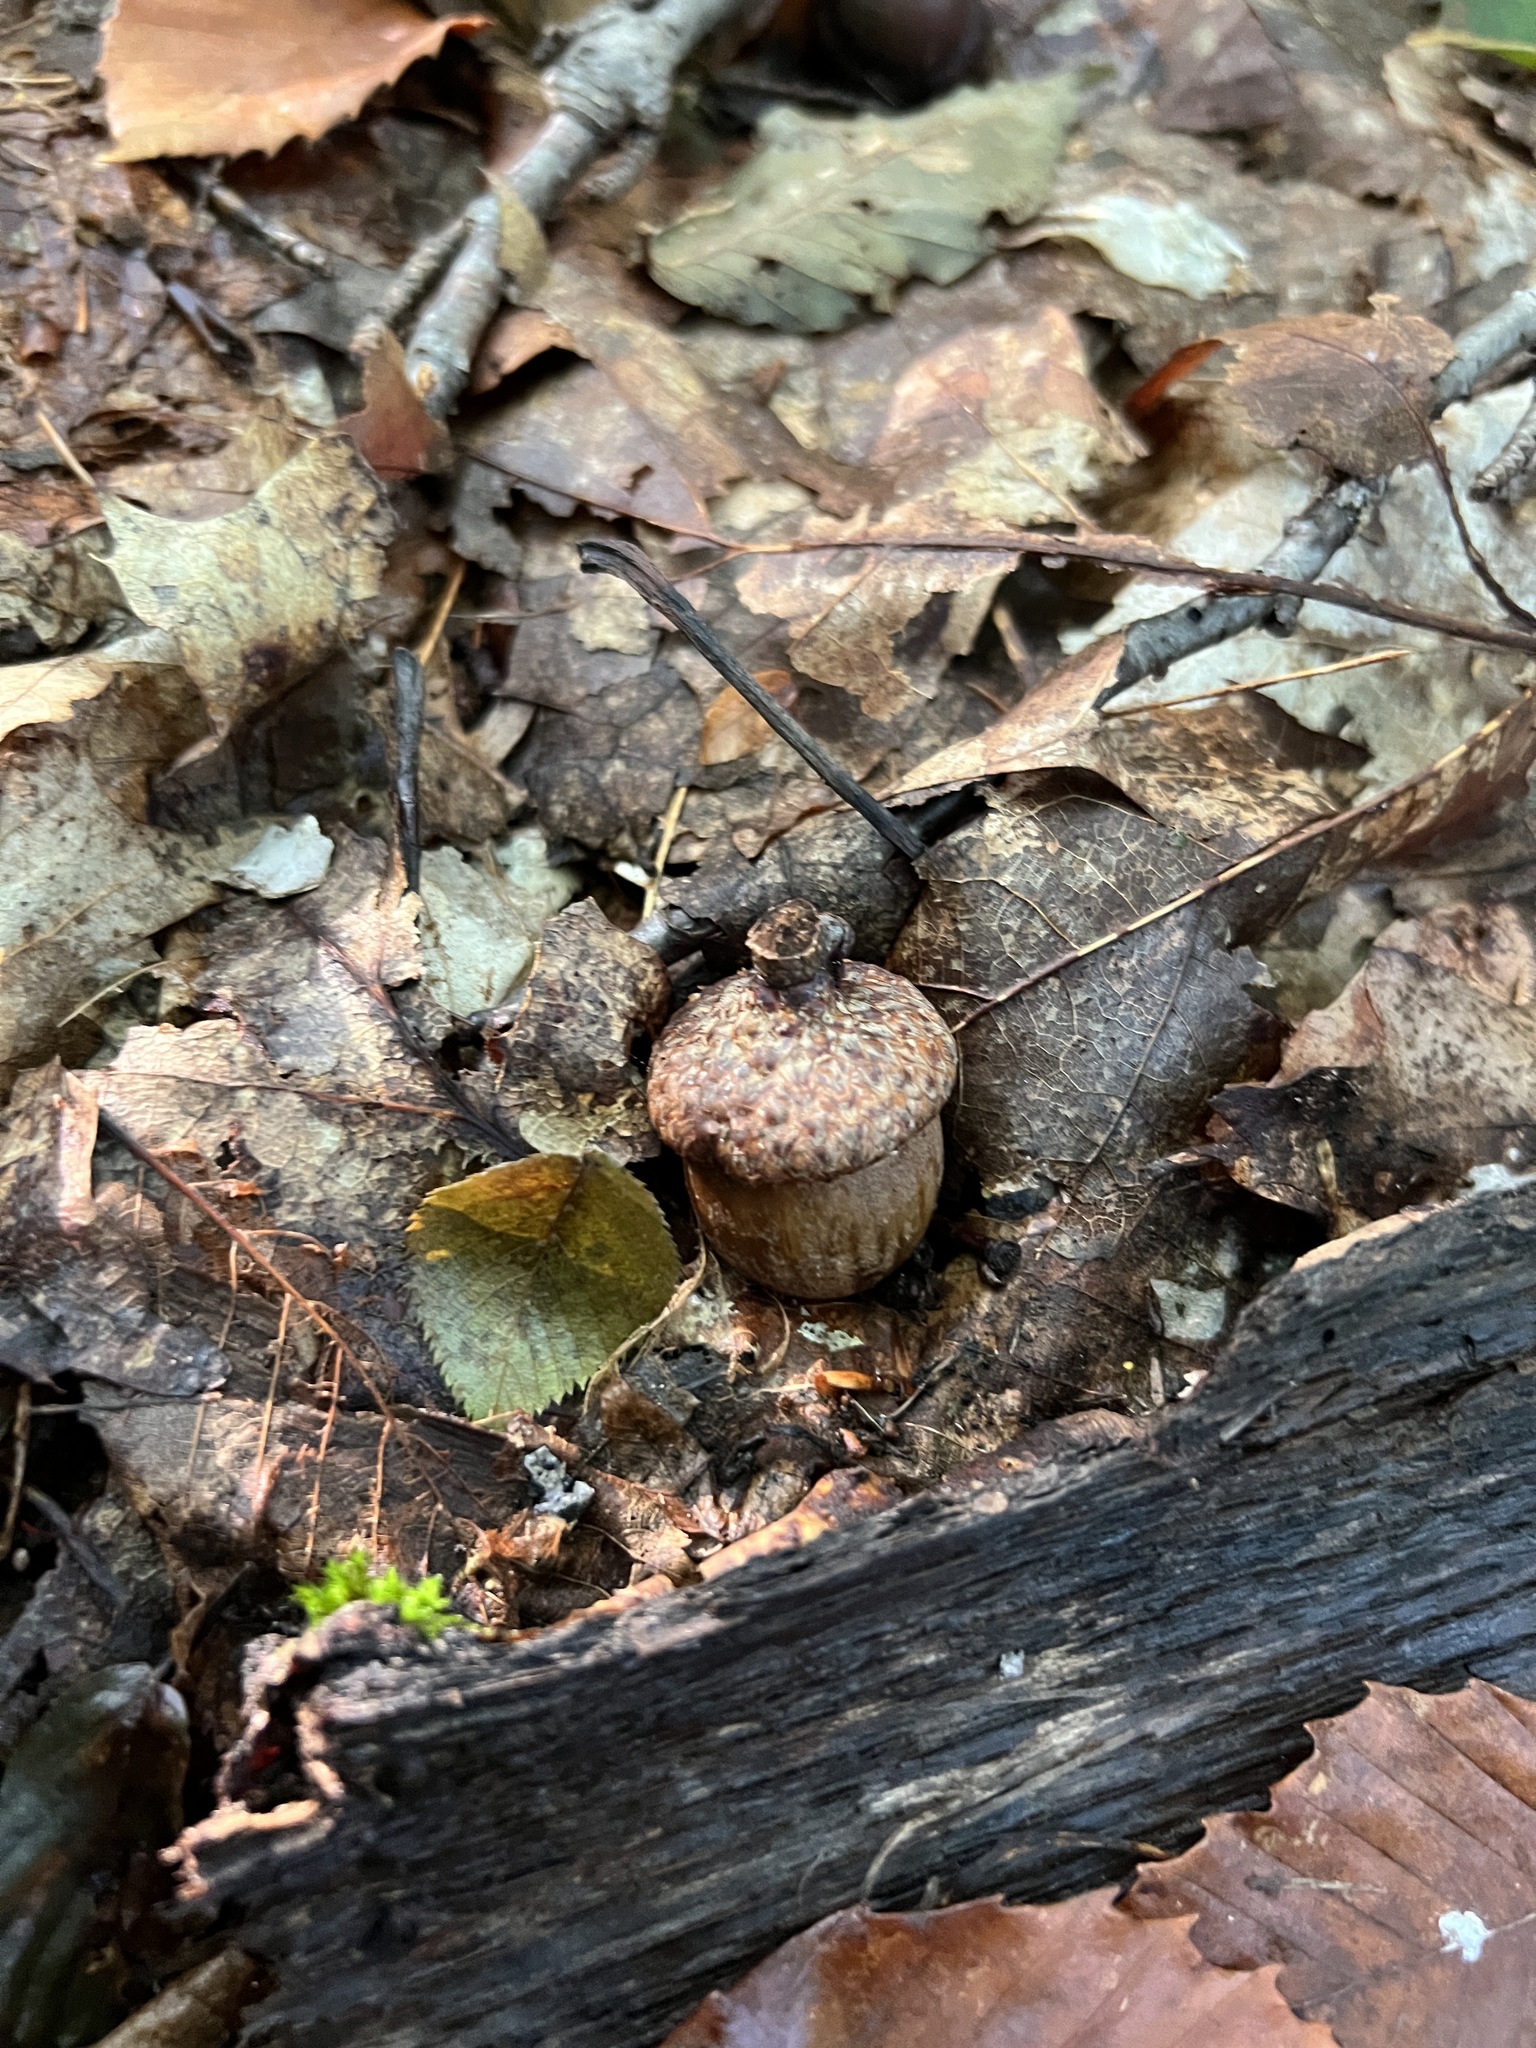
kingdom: Plantae
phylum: Tracheophyta
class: Magnoliopsida
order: Fagales
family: Fagaceae
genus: Quercus
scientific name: Quercus rubra
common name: Red oak
